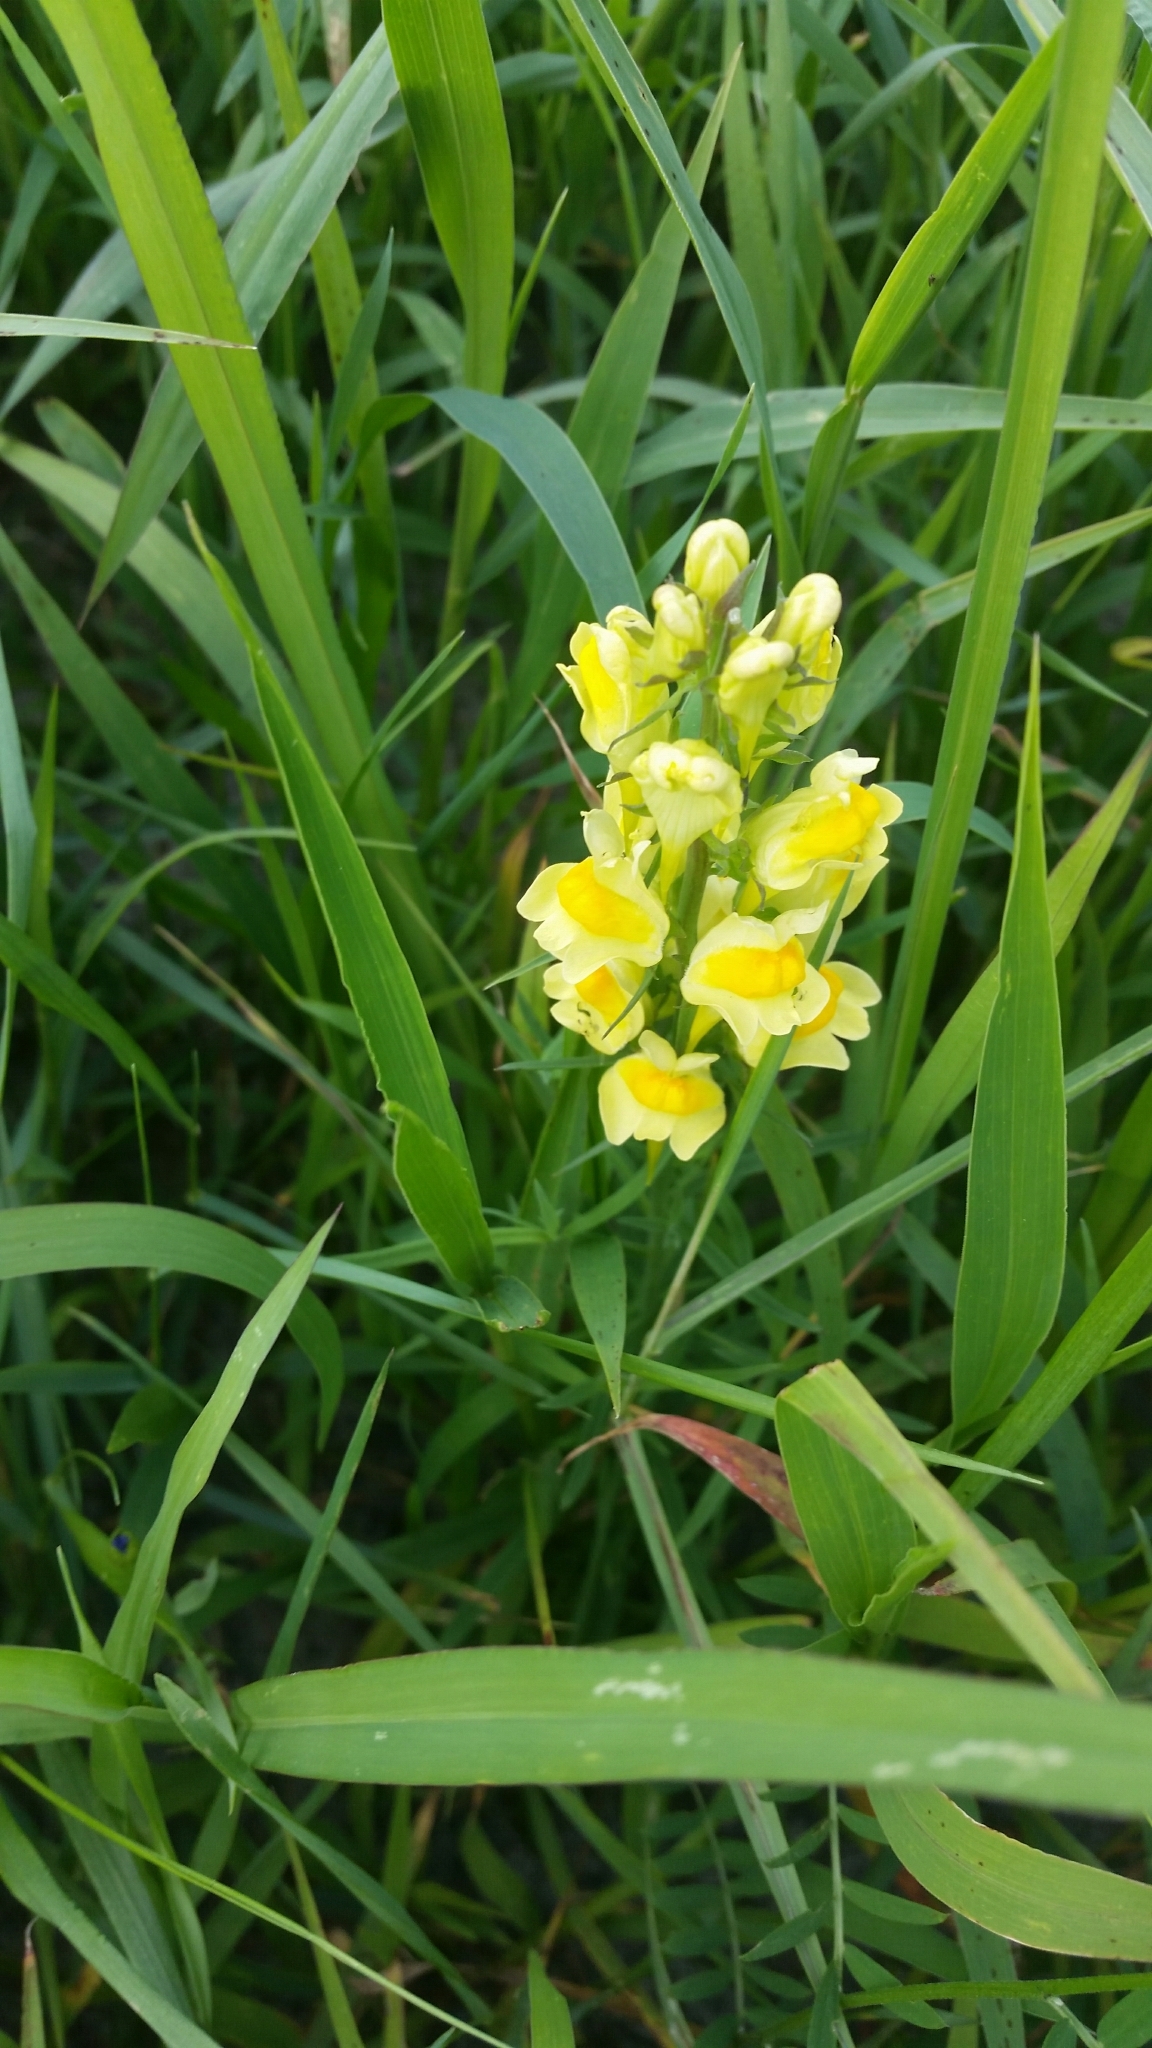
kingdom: Plantae
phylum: Tracheophyta
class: Magnoliopsida
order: Lamiales
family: Plantaginaceae
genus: Linaria
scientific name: Linaria vulgaris
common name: Butter and eggs
